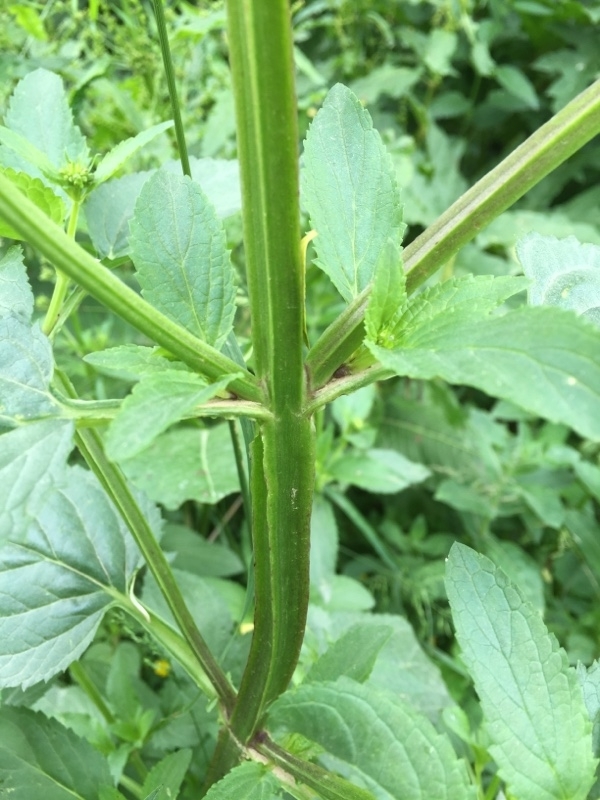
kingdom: Plantae
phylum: Tracheophyta
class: Magnoliopsida
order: Lamiales
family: Scrophulariaceae
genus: Scrophularia
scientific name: Scrophularia umbrosa
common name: Green figwort
